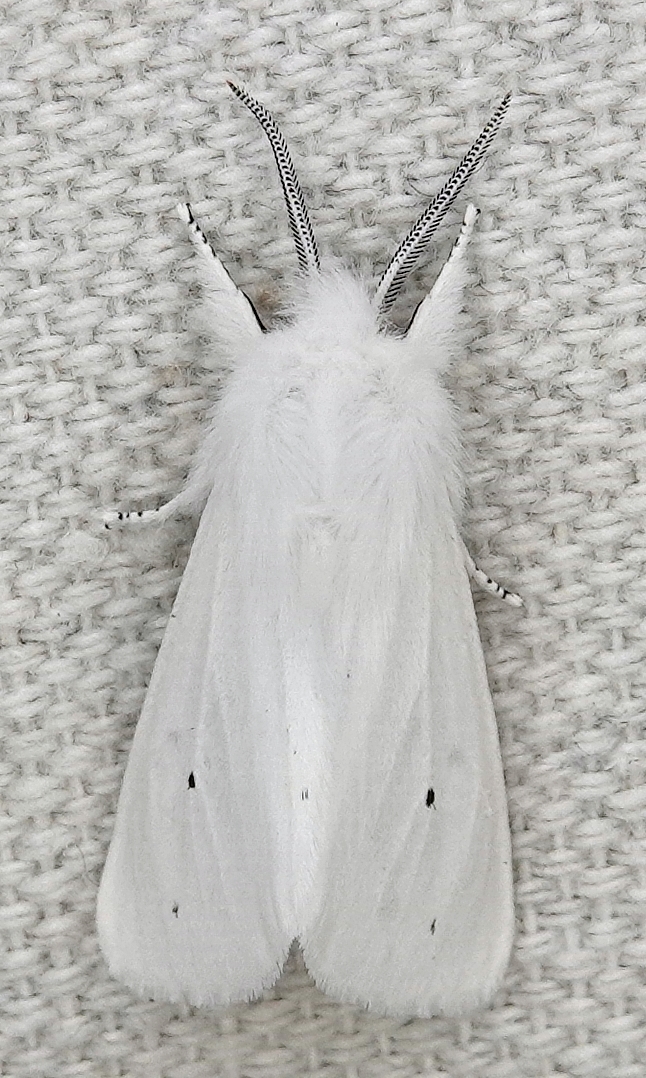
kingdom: Animalia
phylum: Arthropoda
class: Insecta
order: Lepidoptera
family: Erebidae
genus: Spilosoma
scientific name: Spilosoma virginica
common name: Virginia tiger moth
